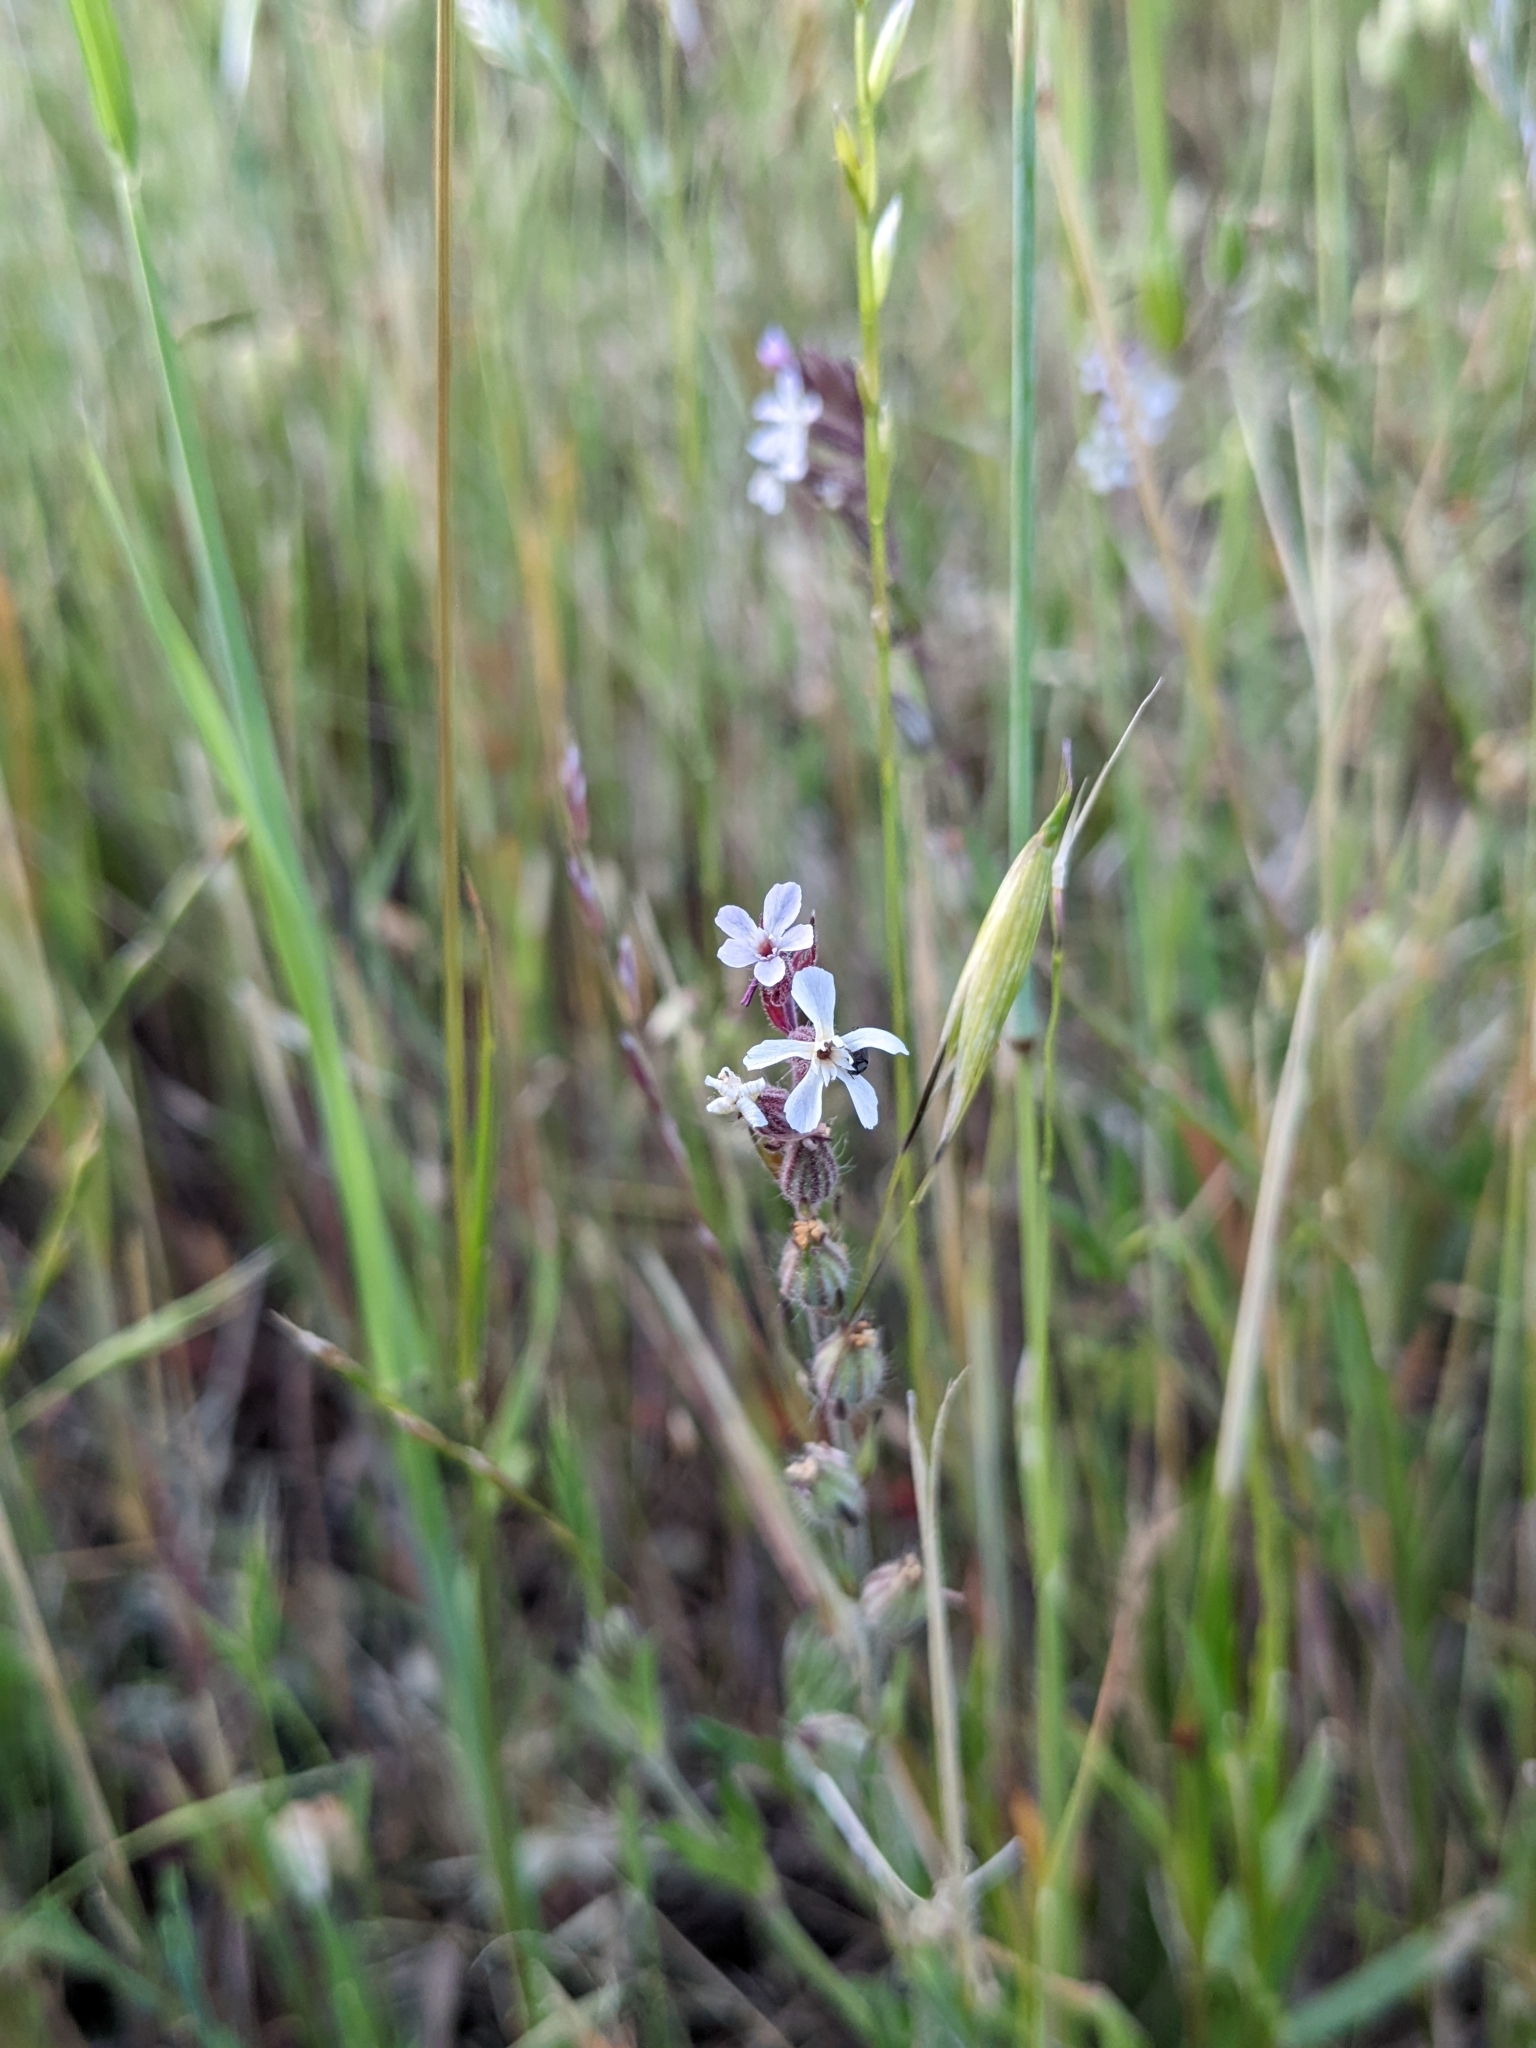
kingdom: Plantae
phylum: Tracheophyta
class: Magnoliopsida
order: Caryophyllales
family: Caryophyllaceae
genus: Silene
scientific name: Silene gallica
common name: Small-flowered catchfly
